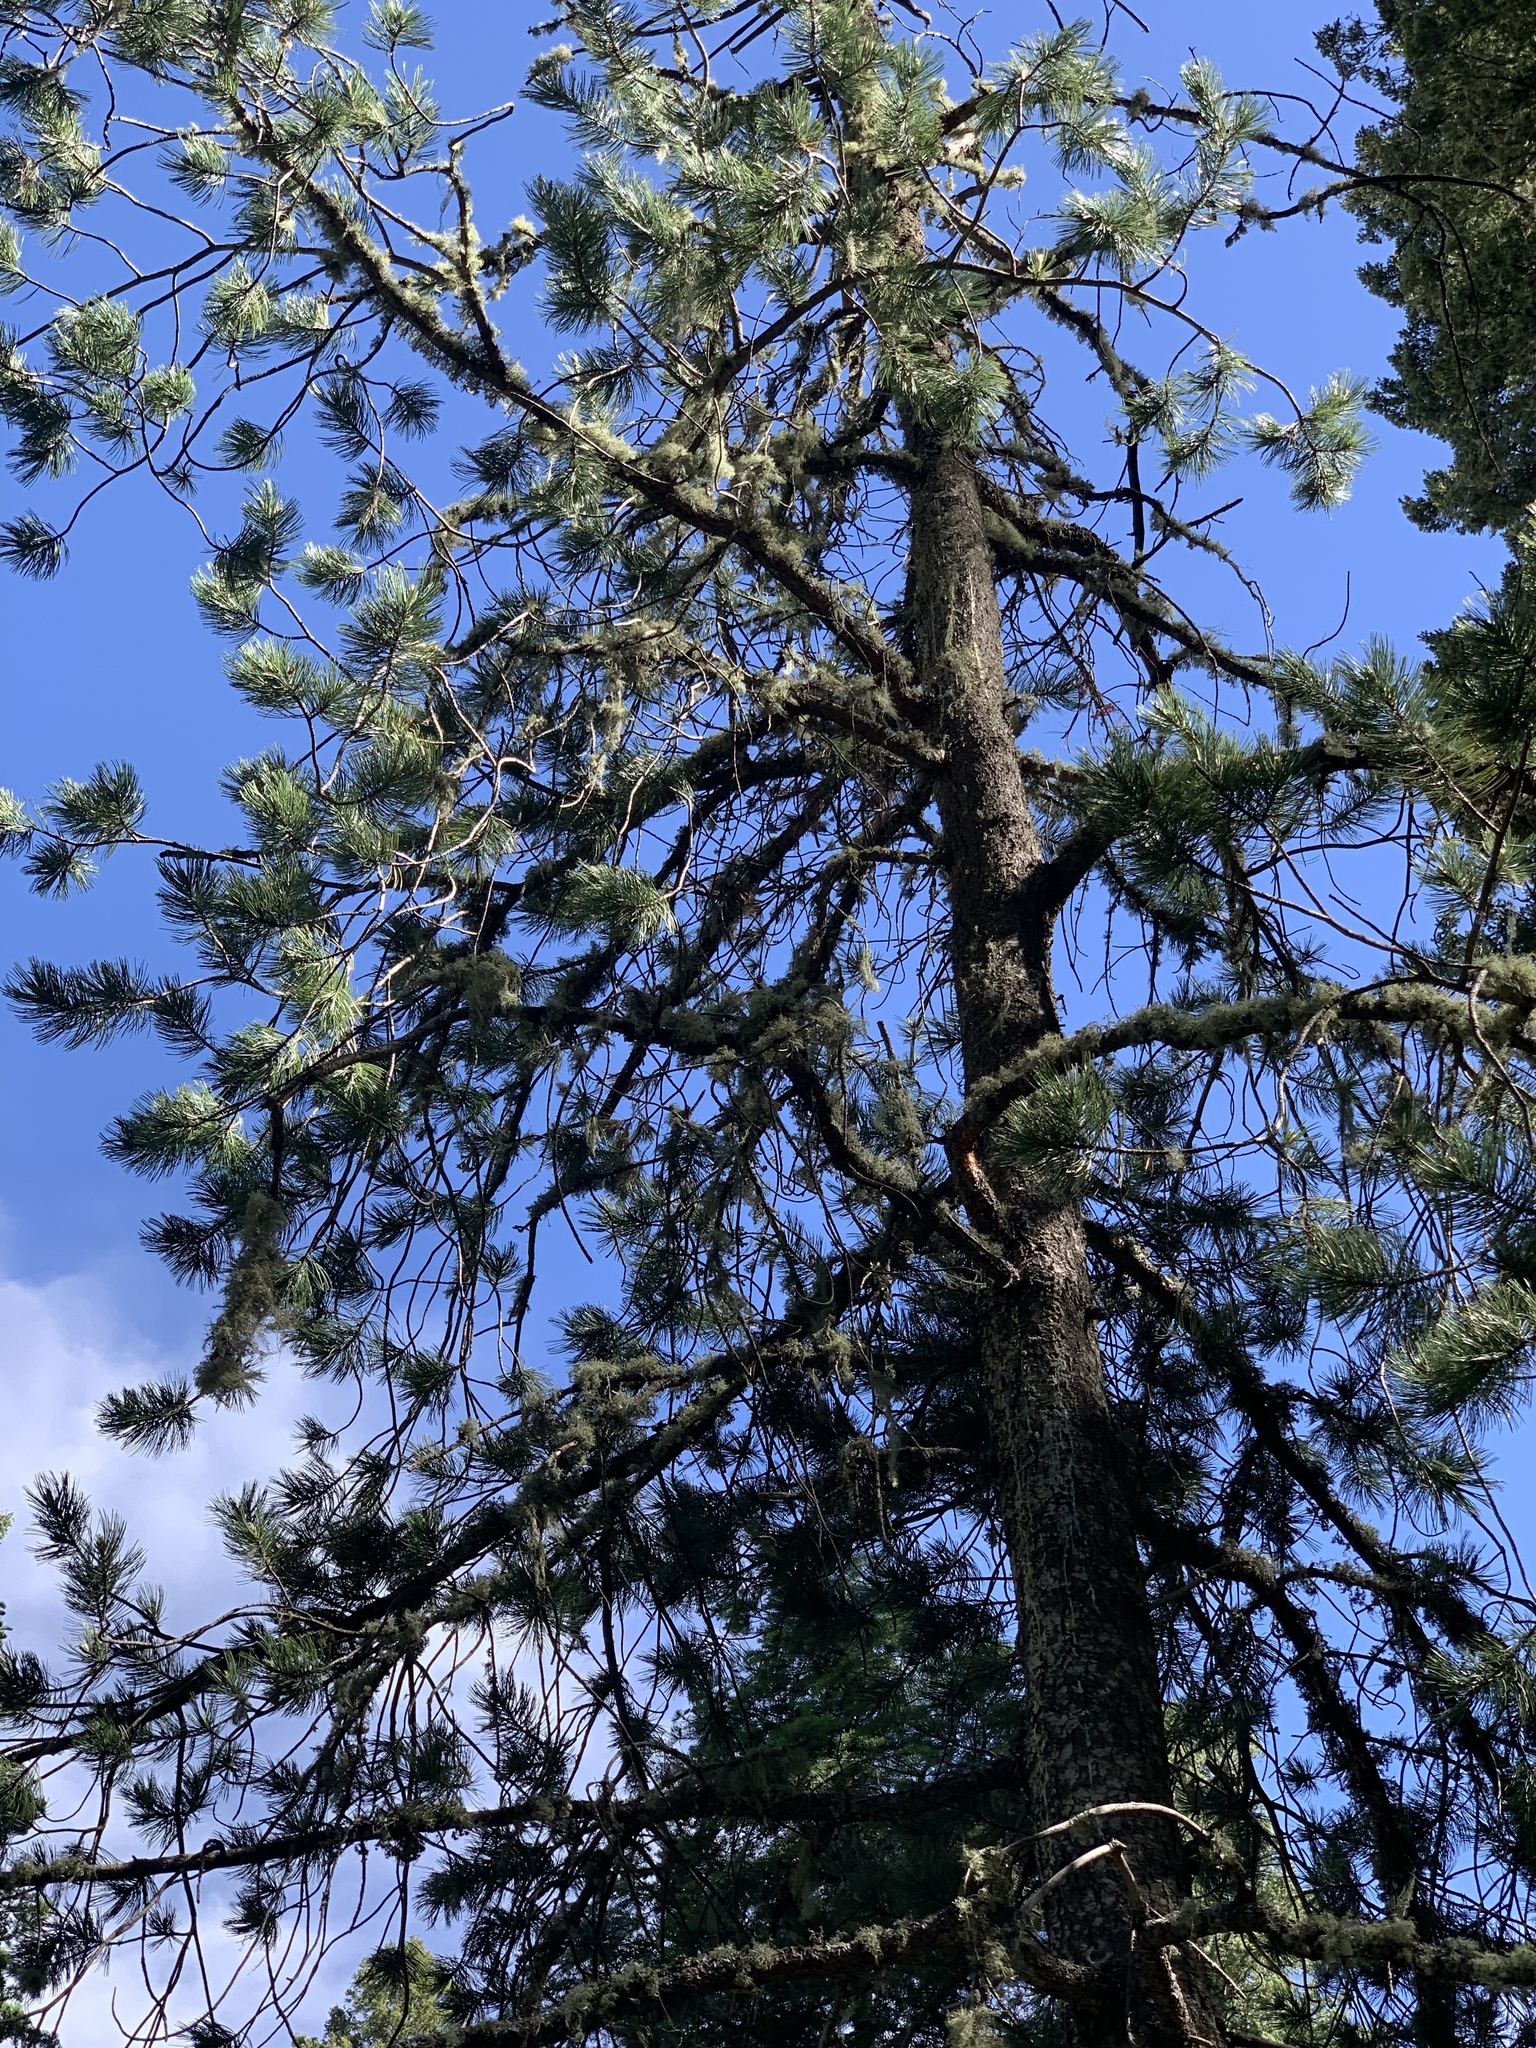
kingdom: Plantae
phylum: Tracheophyta
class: Pinopsida
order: Pinales
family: Pinaceae
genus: Pinus
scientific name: Pinus strobiformis
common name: Southwestern white pine
